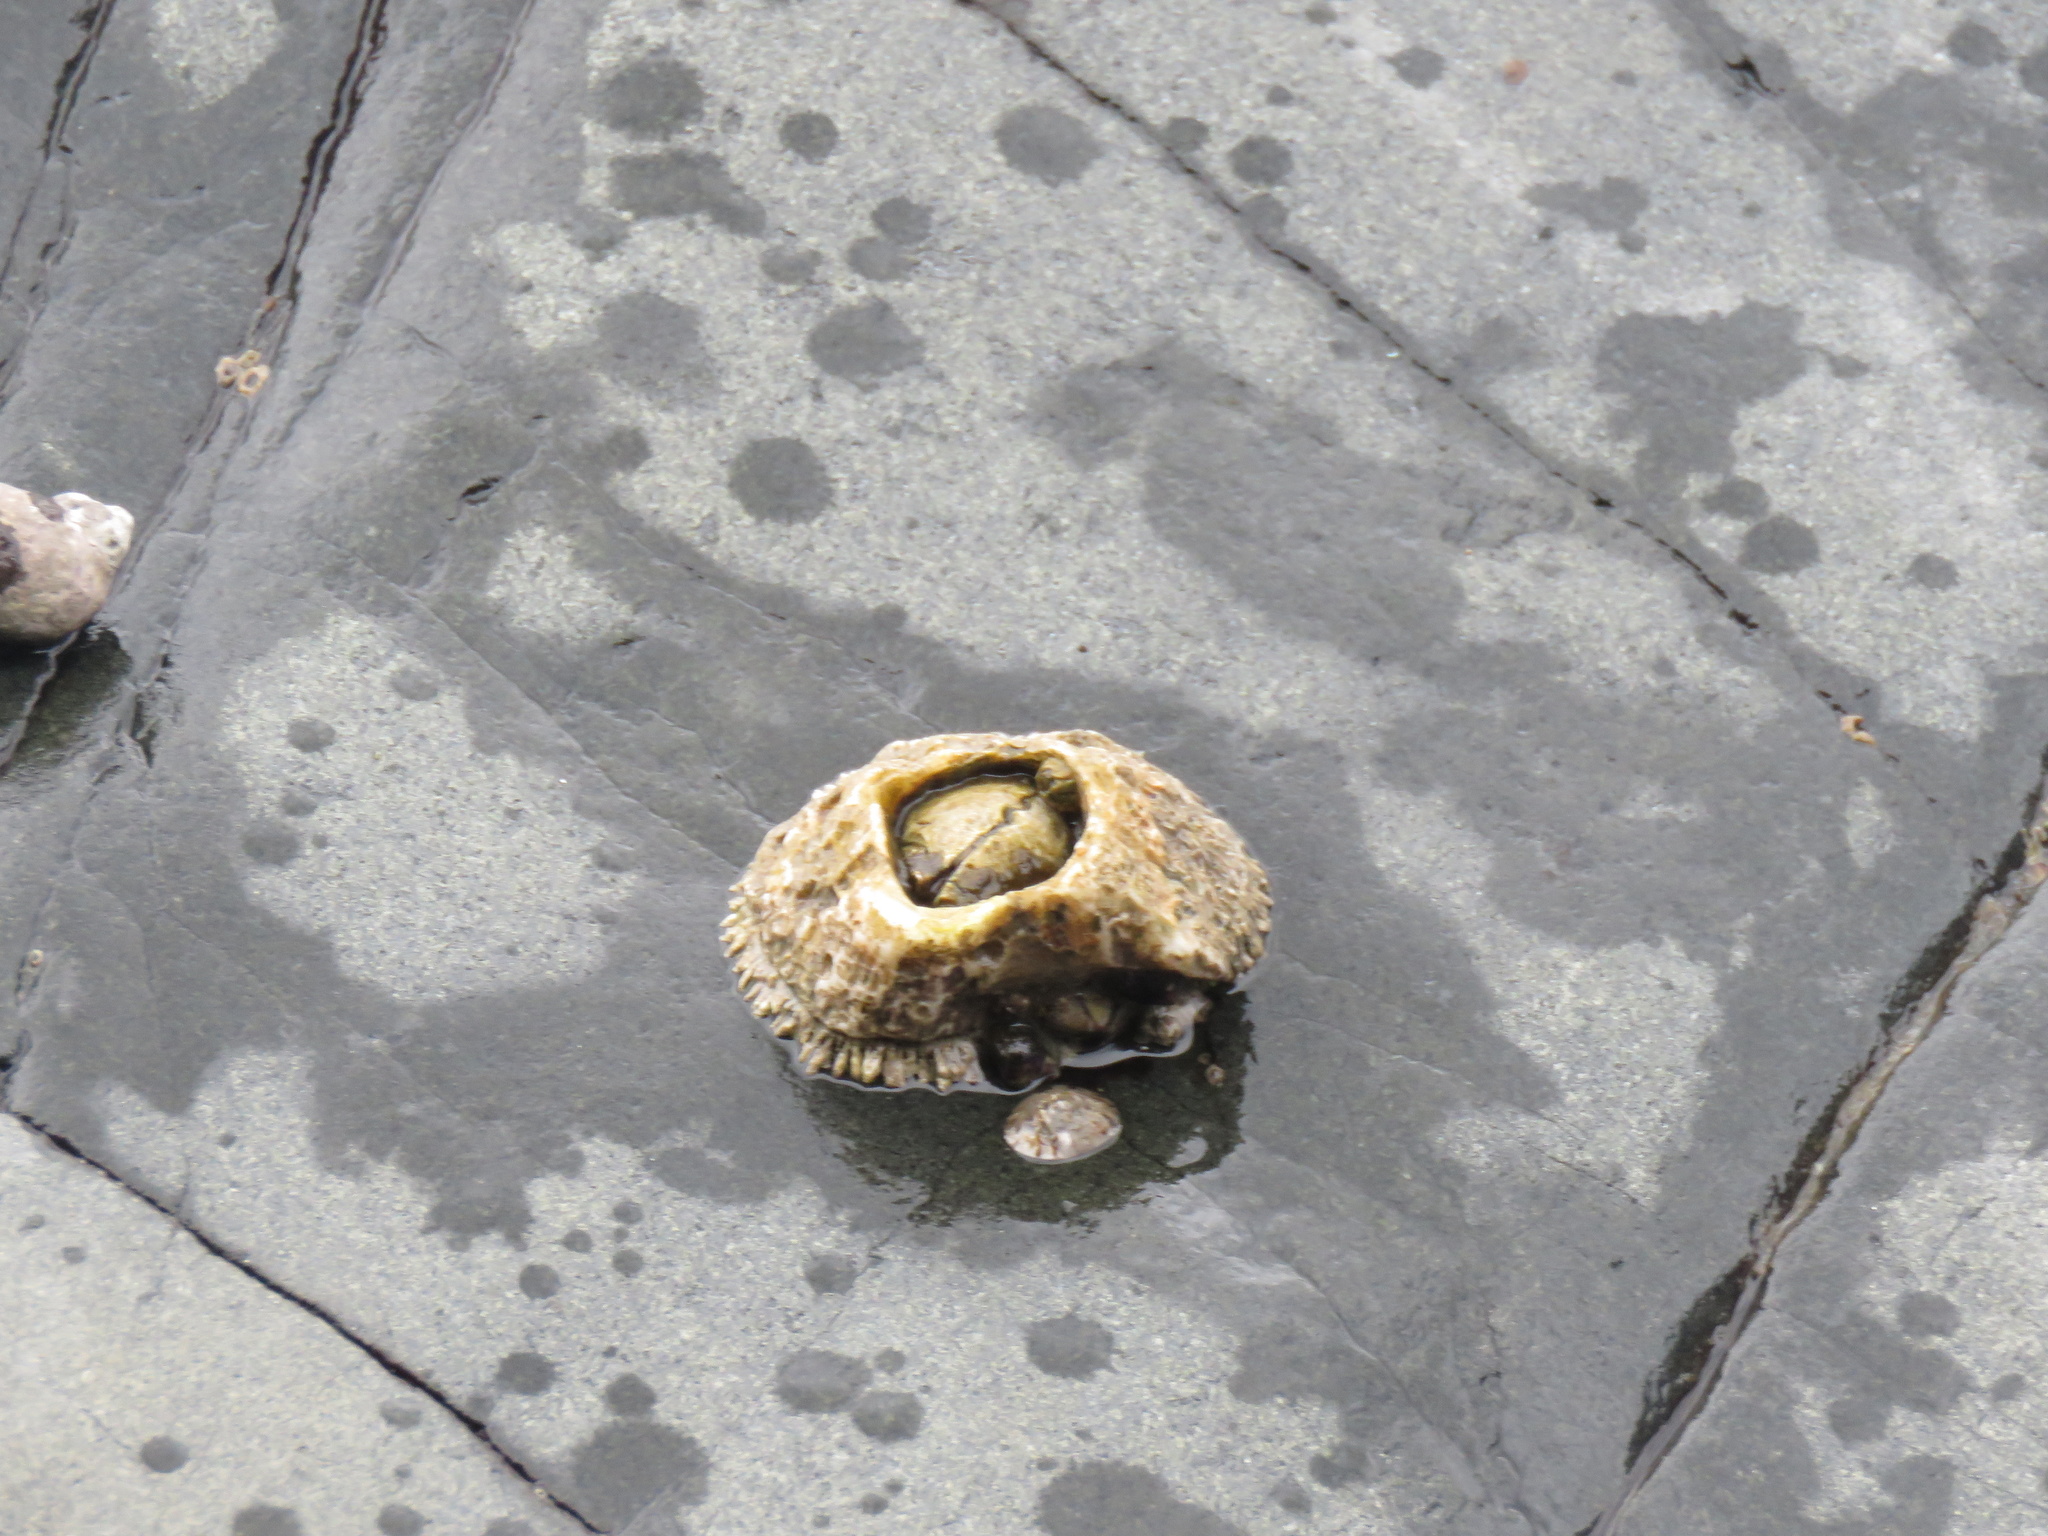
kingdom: Animalia
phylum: Arthropoda
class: Maxillopoda
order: Sessilia
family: Archaeobalanidae
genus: Semibalanus
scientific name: Semibalanus cariosus
